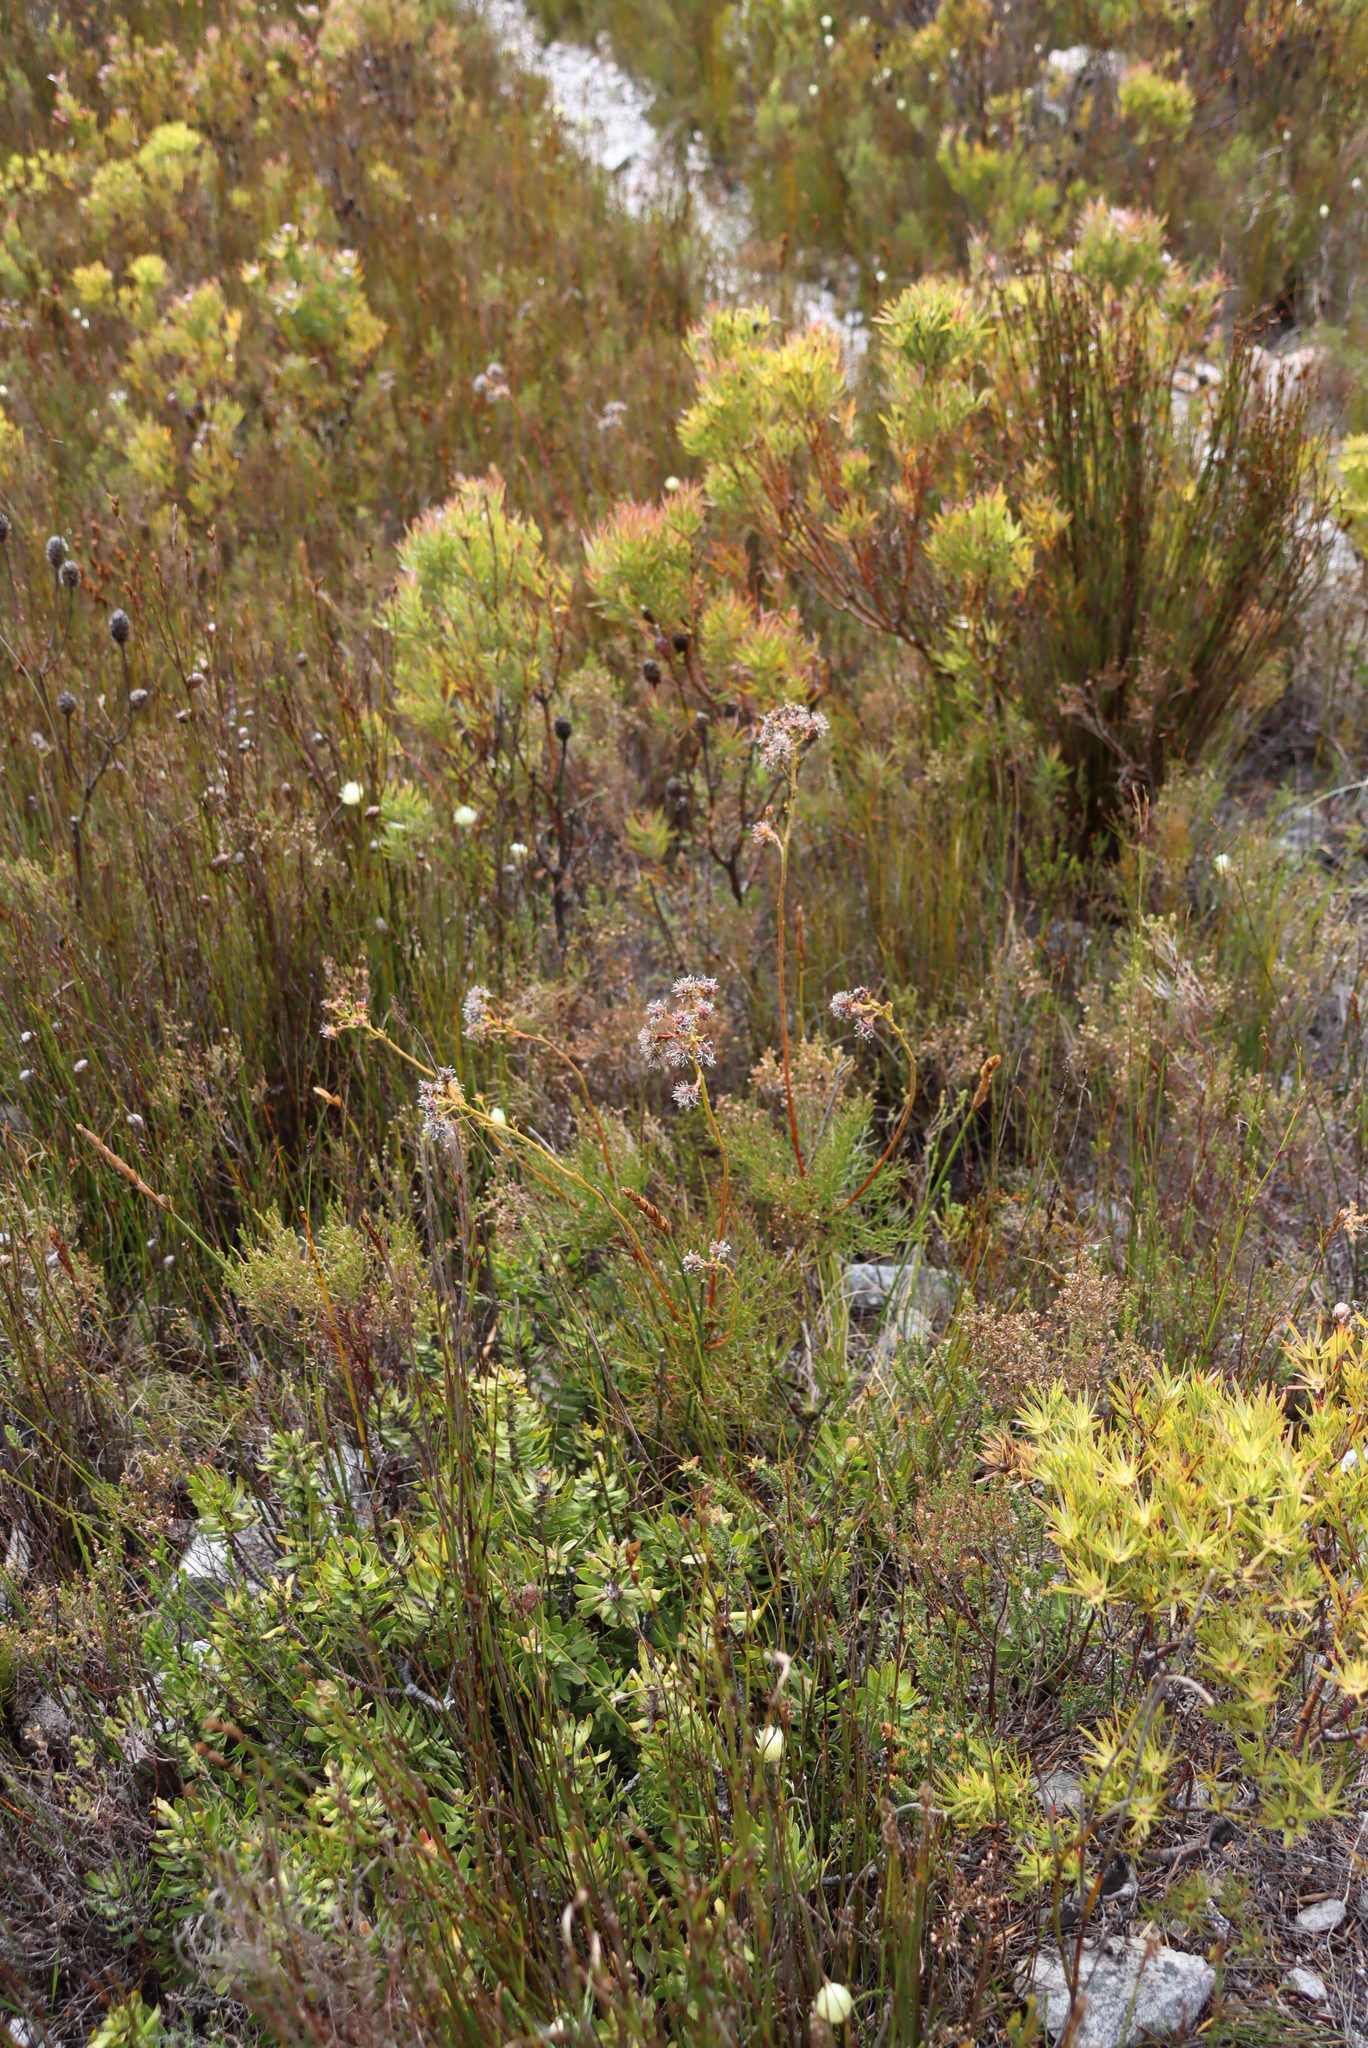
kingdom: Plantae
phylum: Tracheophyta
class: Magnoliopsida
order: Proteales
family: Proteaceae
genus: Serruria
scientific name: Serruria elongata
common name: Long-stalk spiderhead
